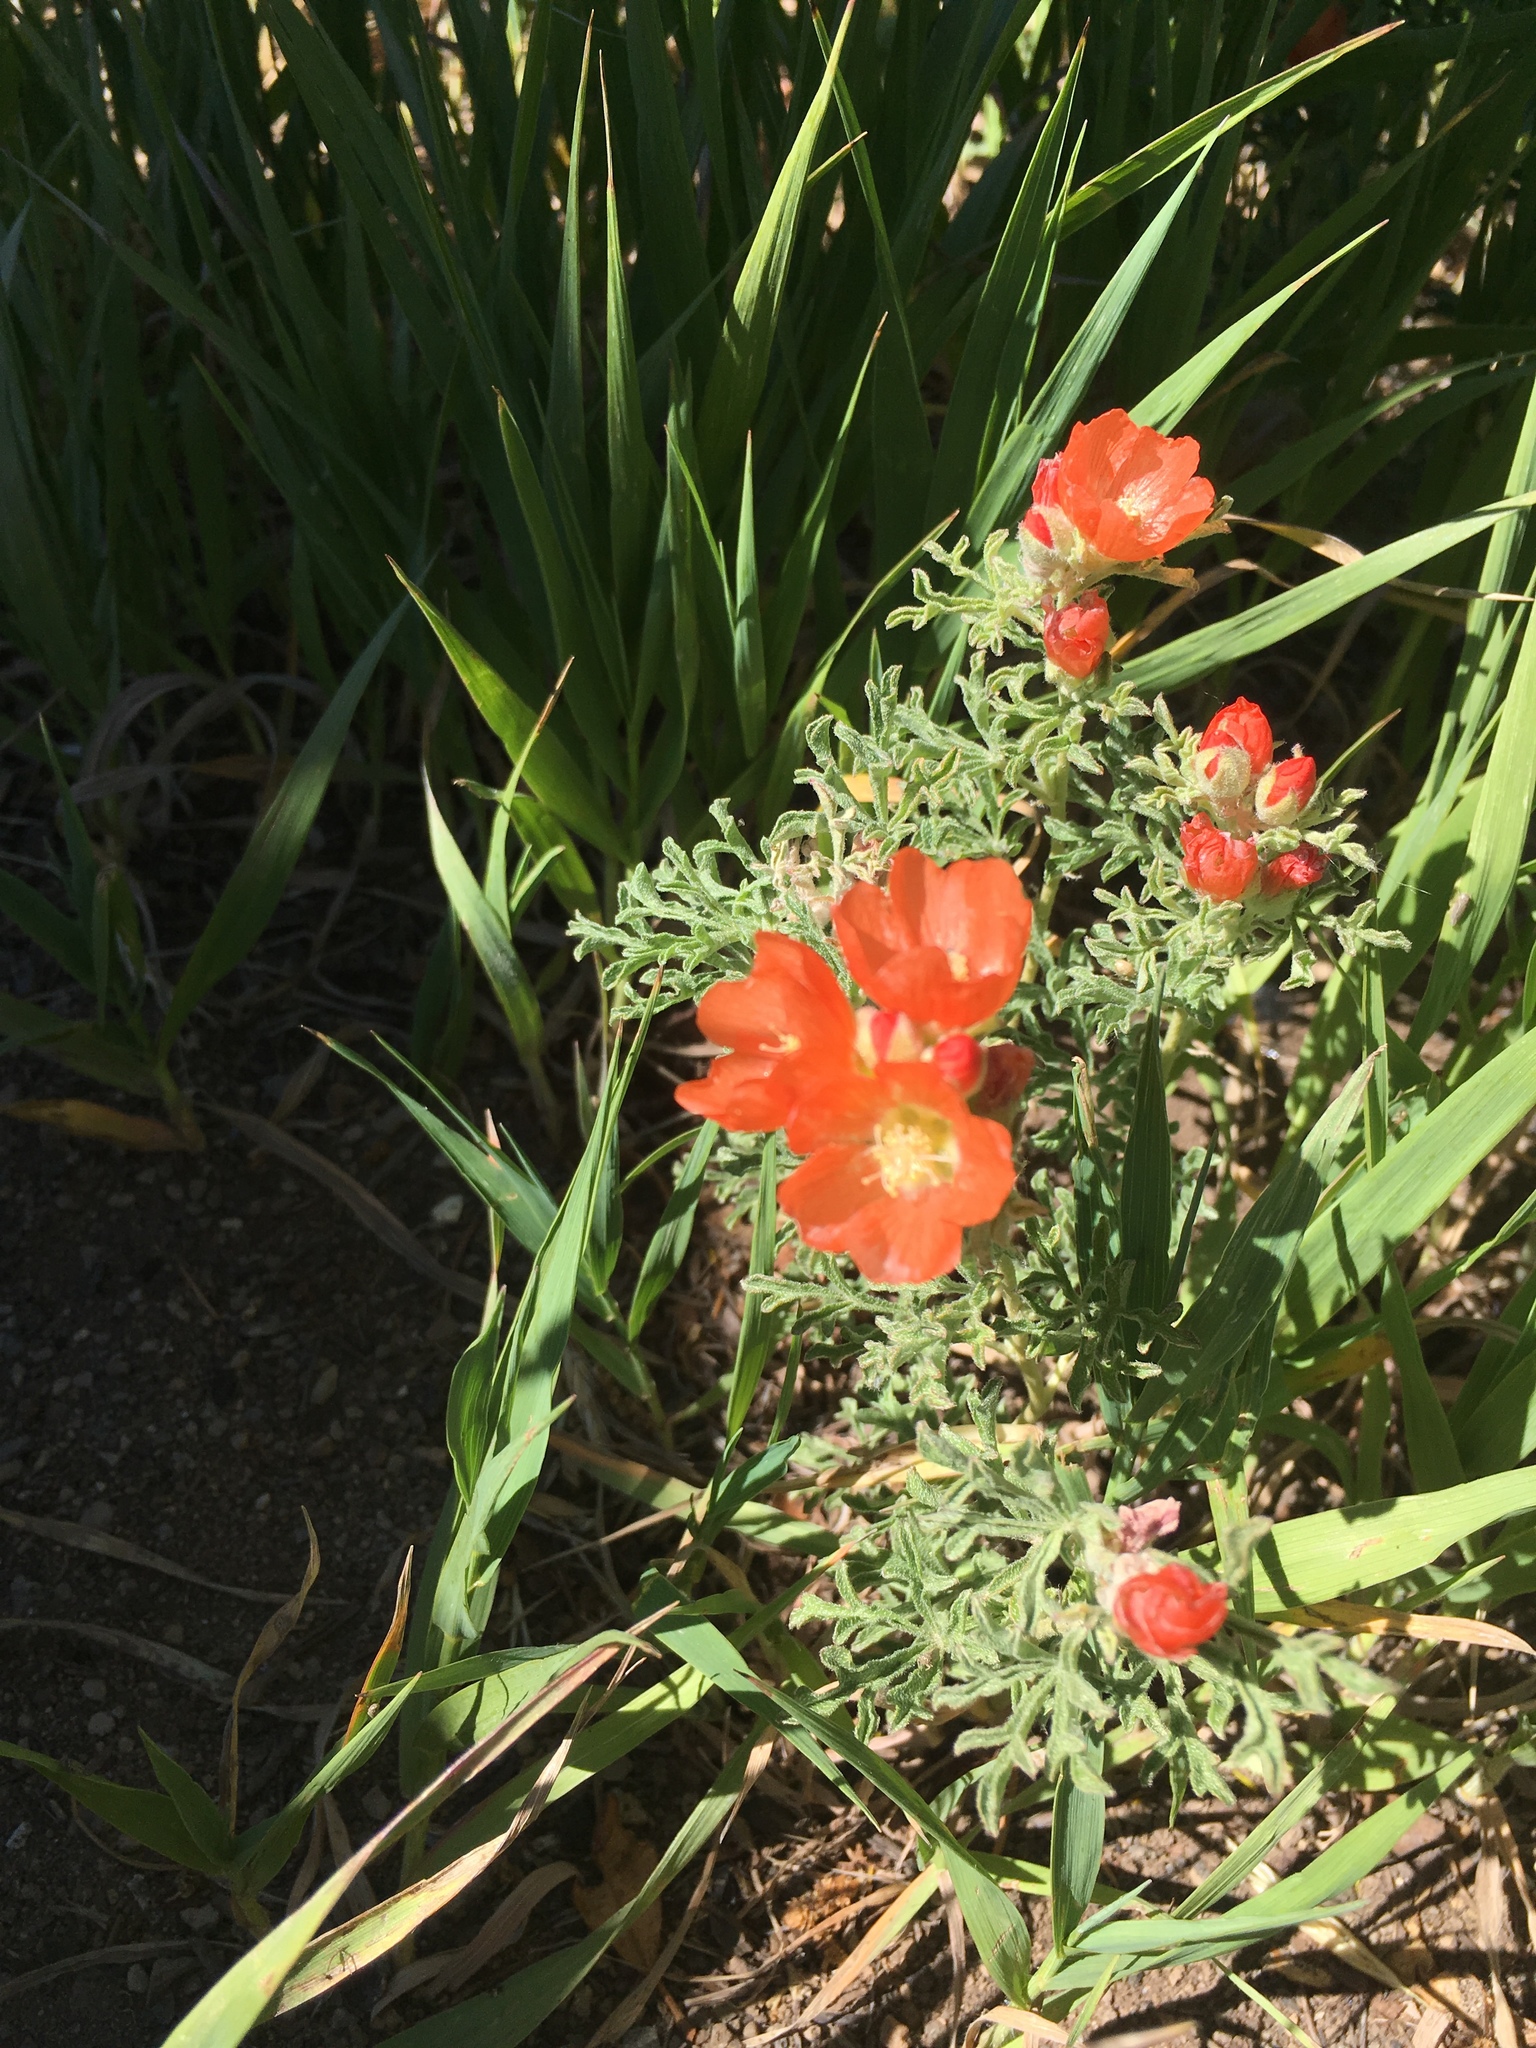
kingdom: Plantae
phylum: Tracheophyta
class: Magnoliopsida
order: Malvales
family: Malvaceae
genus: Sphaeralcea
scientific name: Sphaeralcea coccinea
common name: Moss-rose
